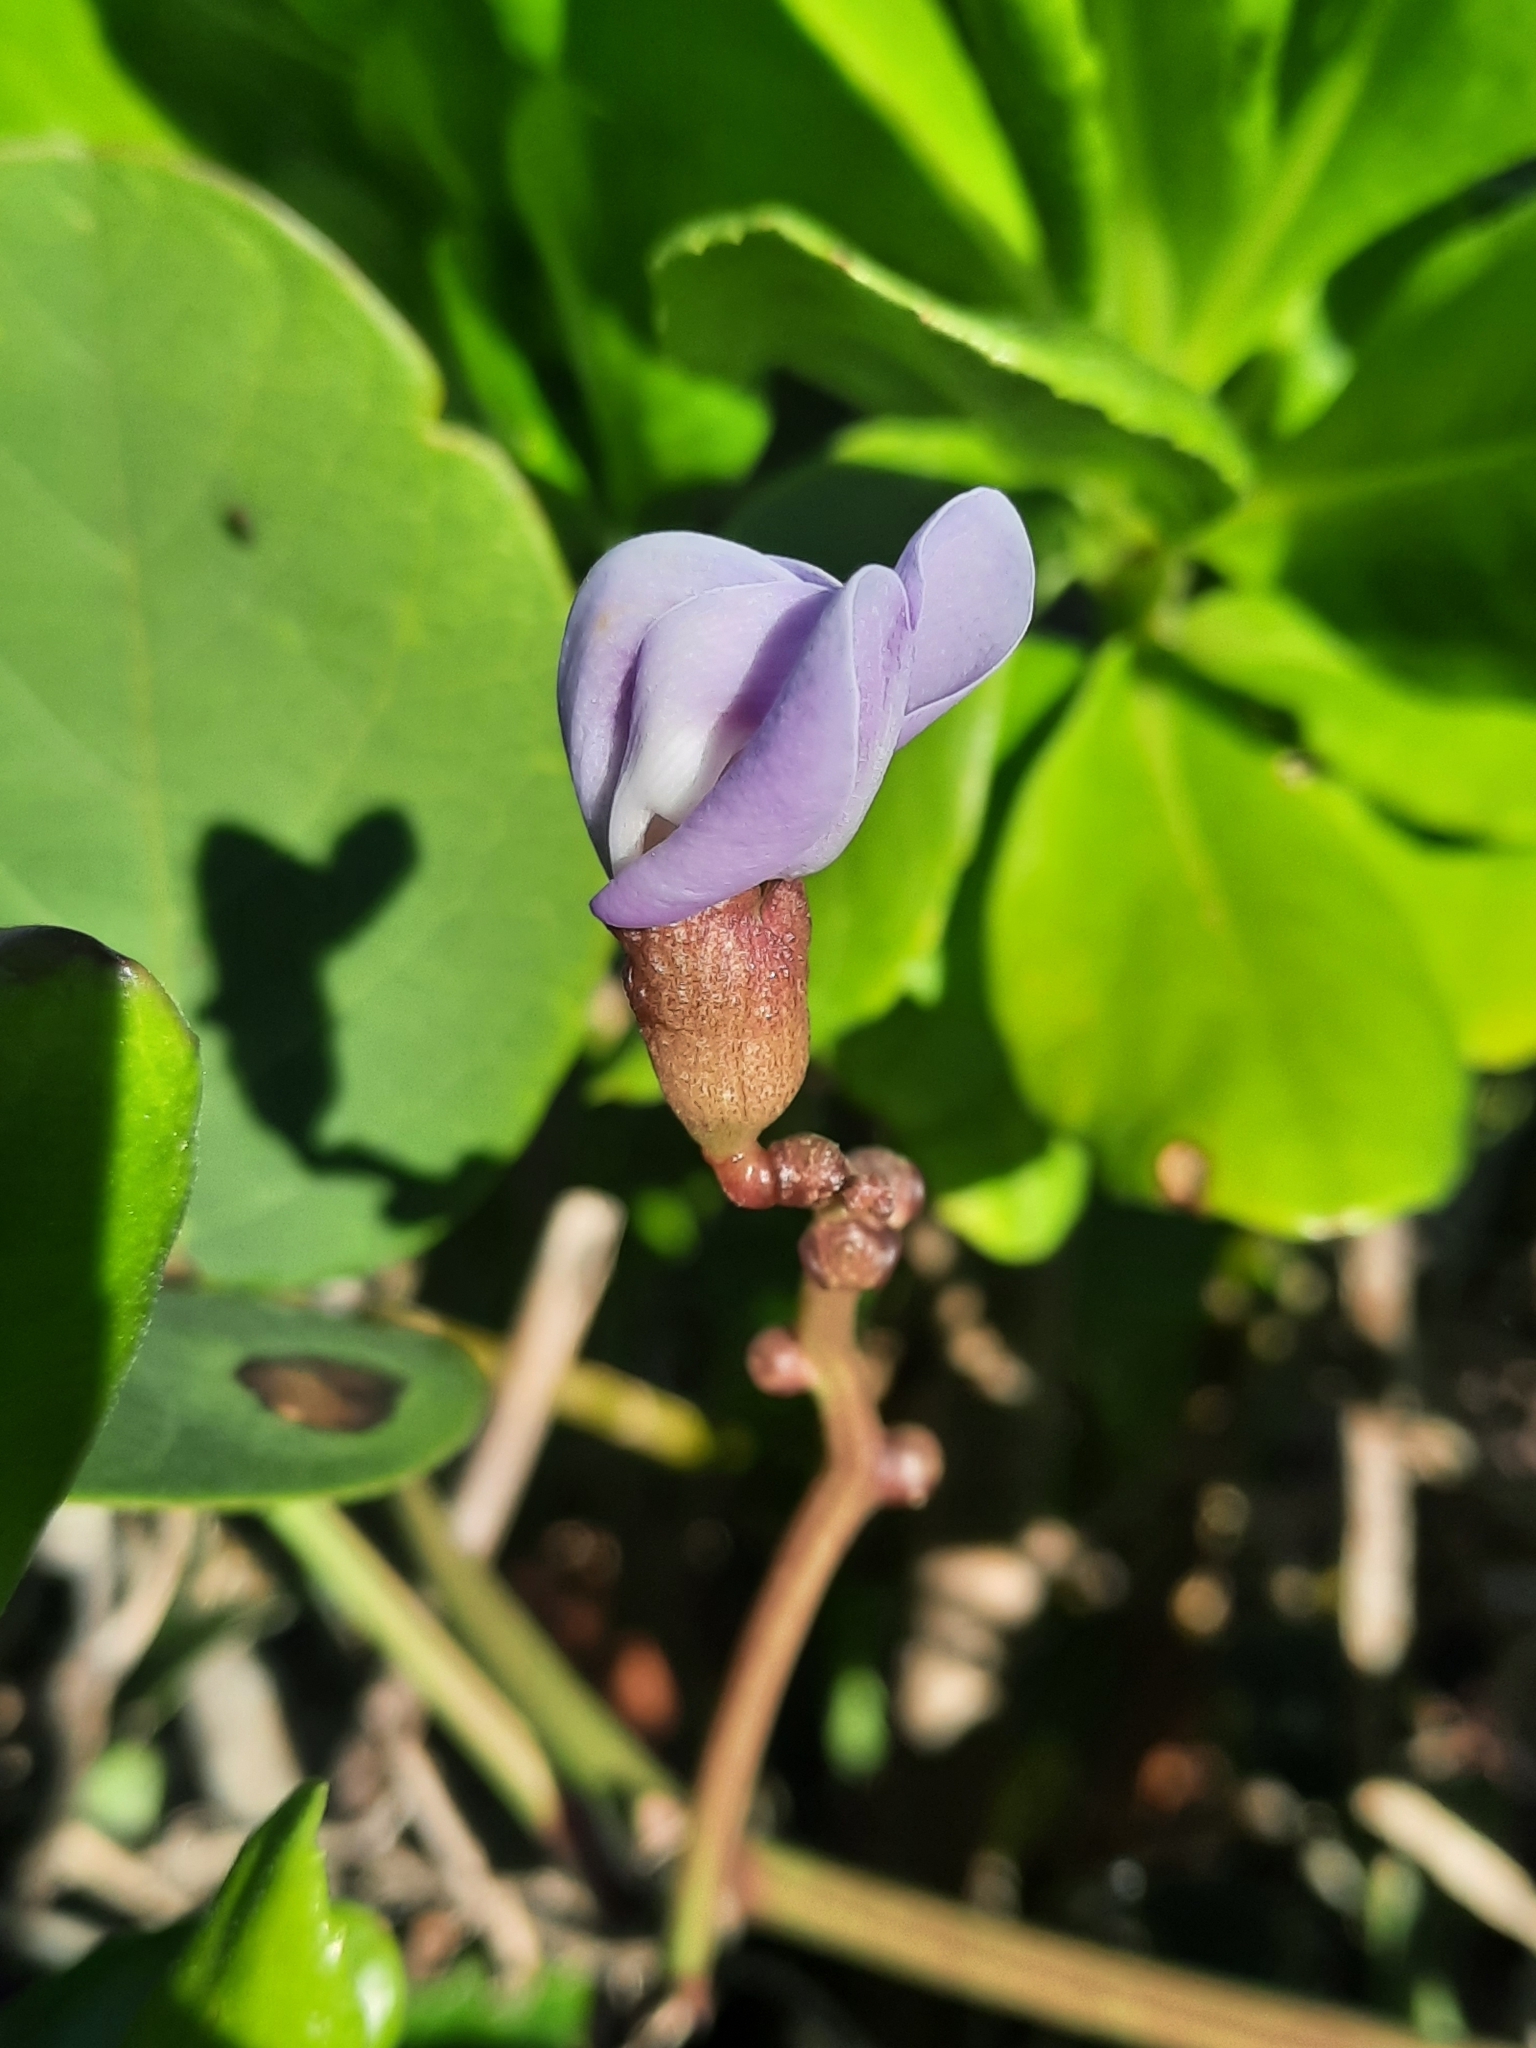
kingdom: Plantae
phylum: Tracheophyta
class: Magnoliopsida
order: Fabales
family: Fabaceae
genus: Canavalia
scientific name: Canavalia rosea
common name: Beach-bean
